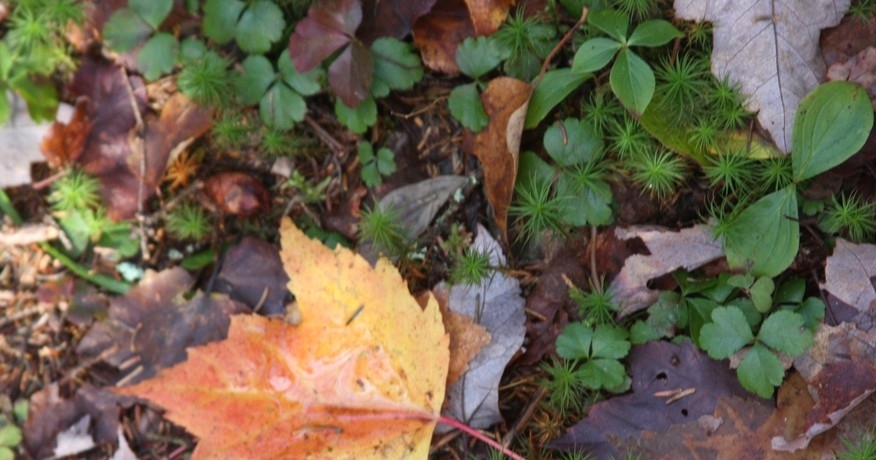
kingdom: Plantae
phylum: Tracheophyta
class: Magnoliopsida
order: Ranunculales
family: Ranunculaceae
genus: Coptis
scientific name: Coptis trifolia
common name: Canker-root
